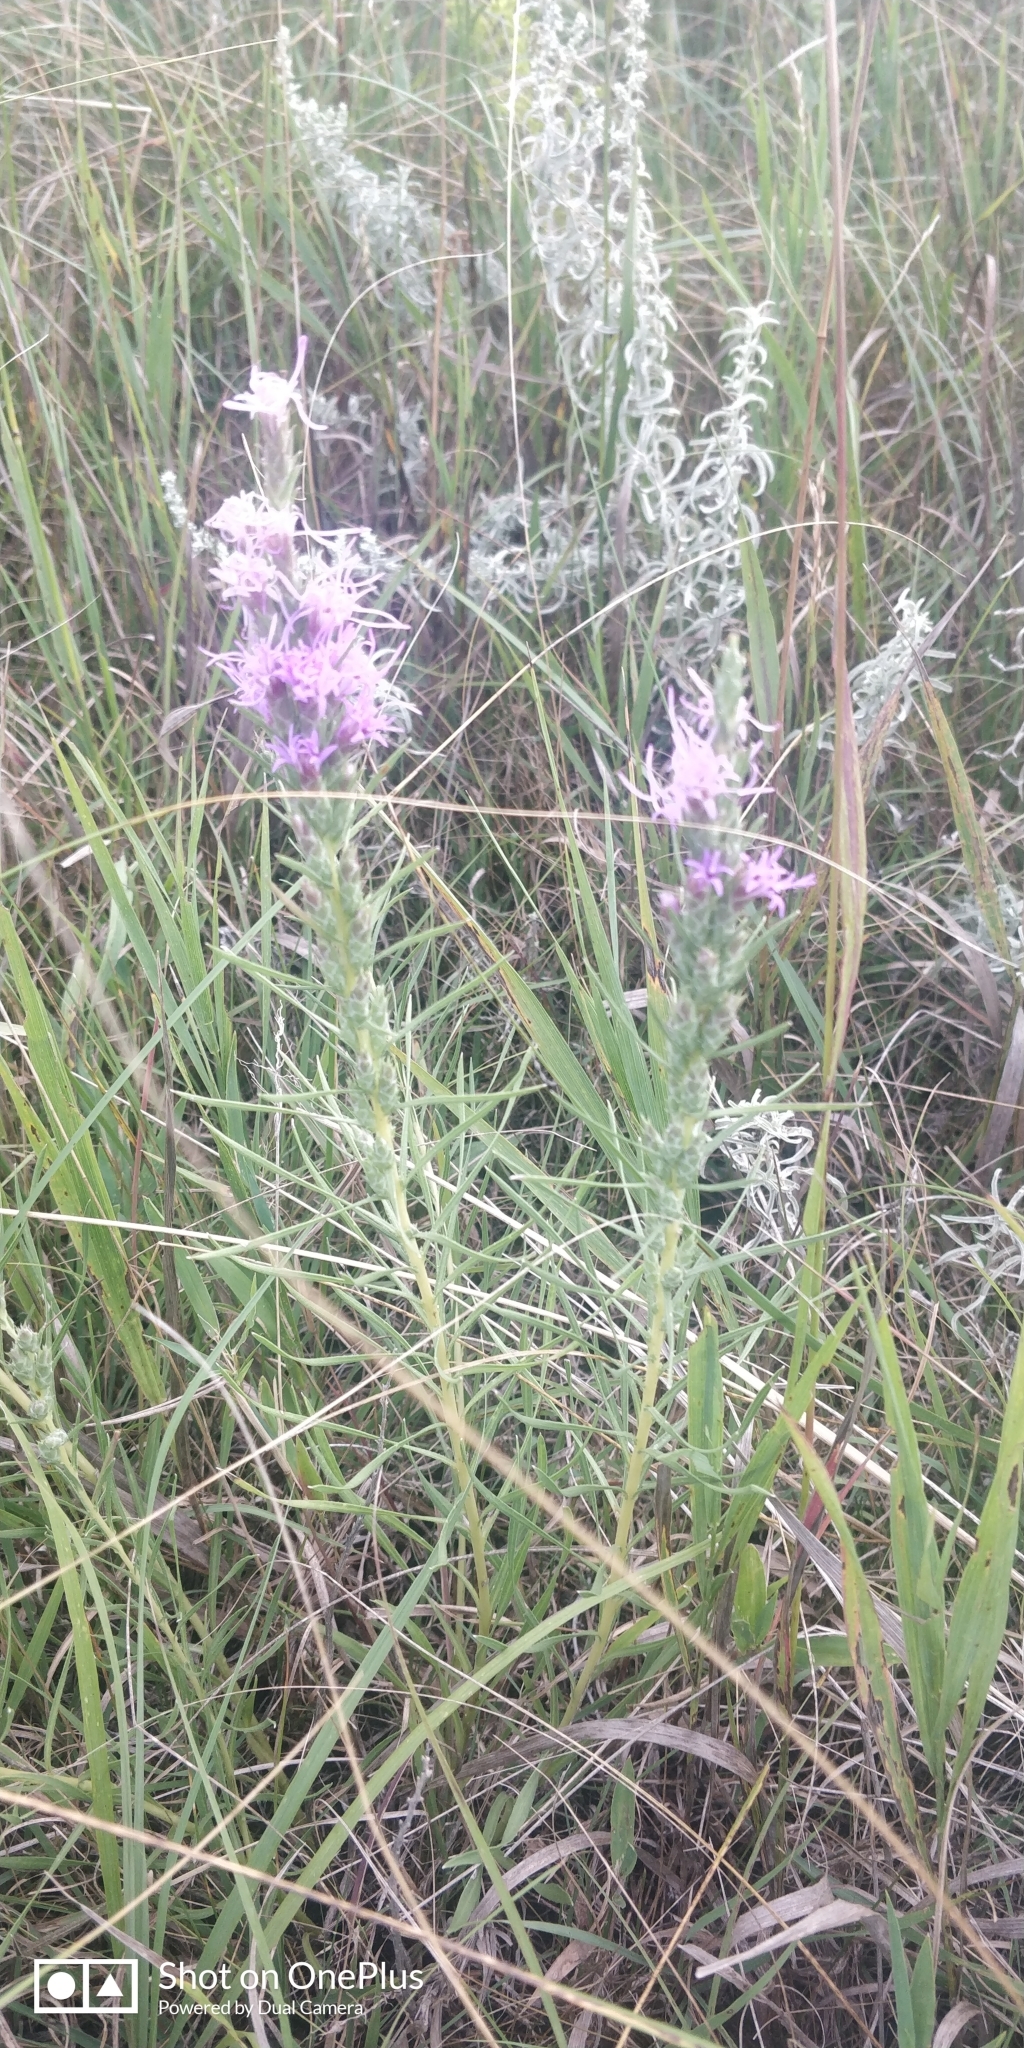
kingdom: Plantae
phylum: Tracheophyta
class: Magnoliopsida
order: Asterales
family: Asteraceae
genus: Liatris
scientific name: Liatris punctata
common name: Dotted gayfeather
